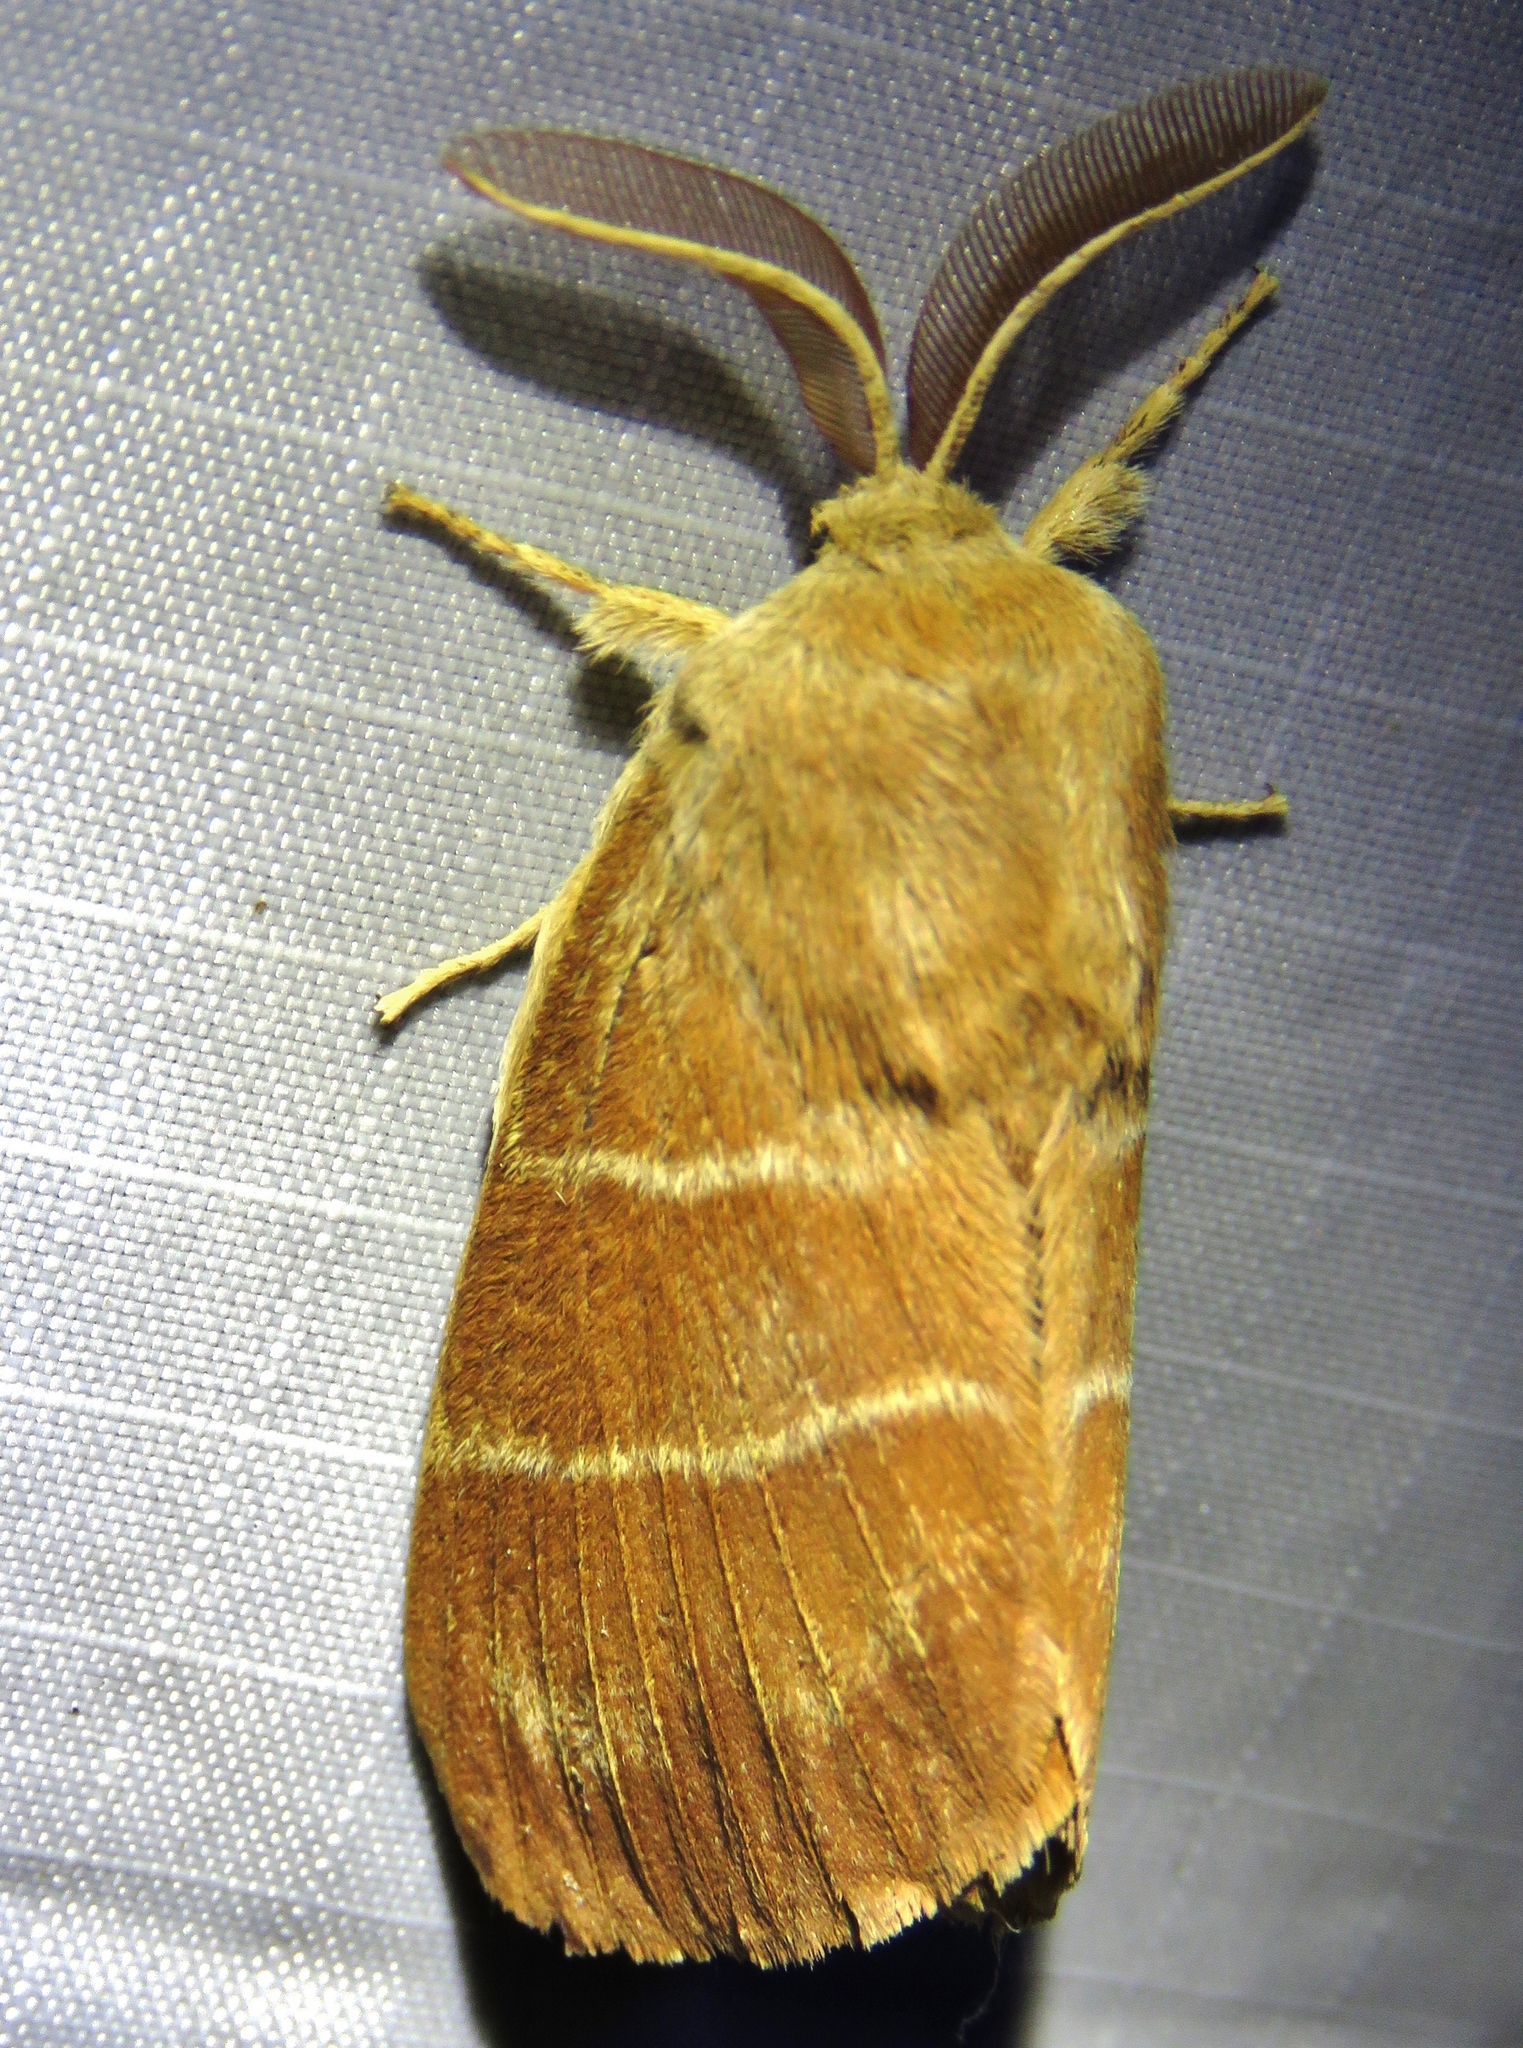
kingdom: Animalia
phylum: Arthropoda
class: Insecta
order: Lepidoptera
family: Lasiocampidae
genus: Macrothylacia
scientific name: Macrothylacia rubi
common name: Fox moth
